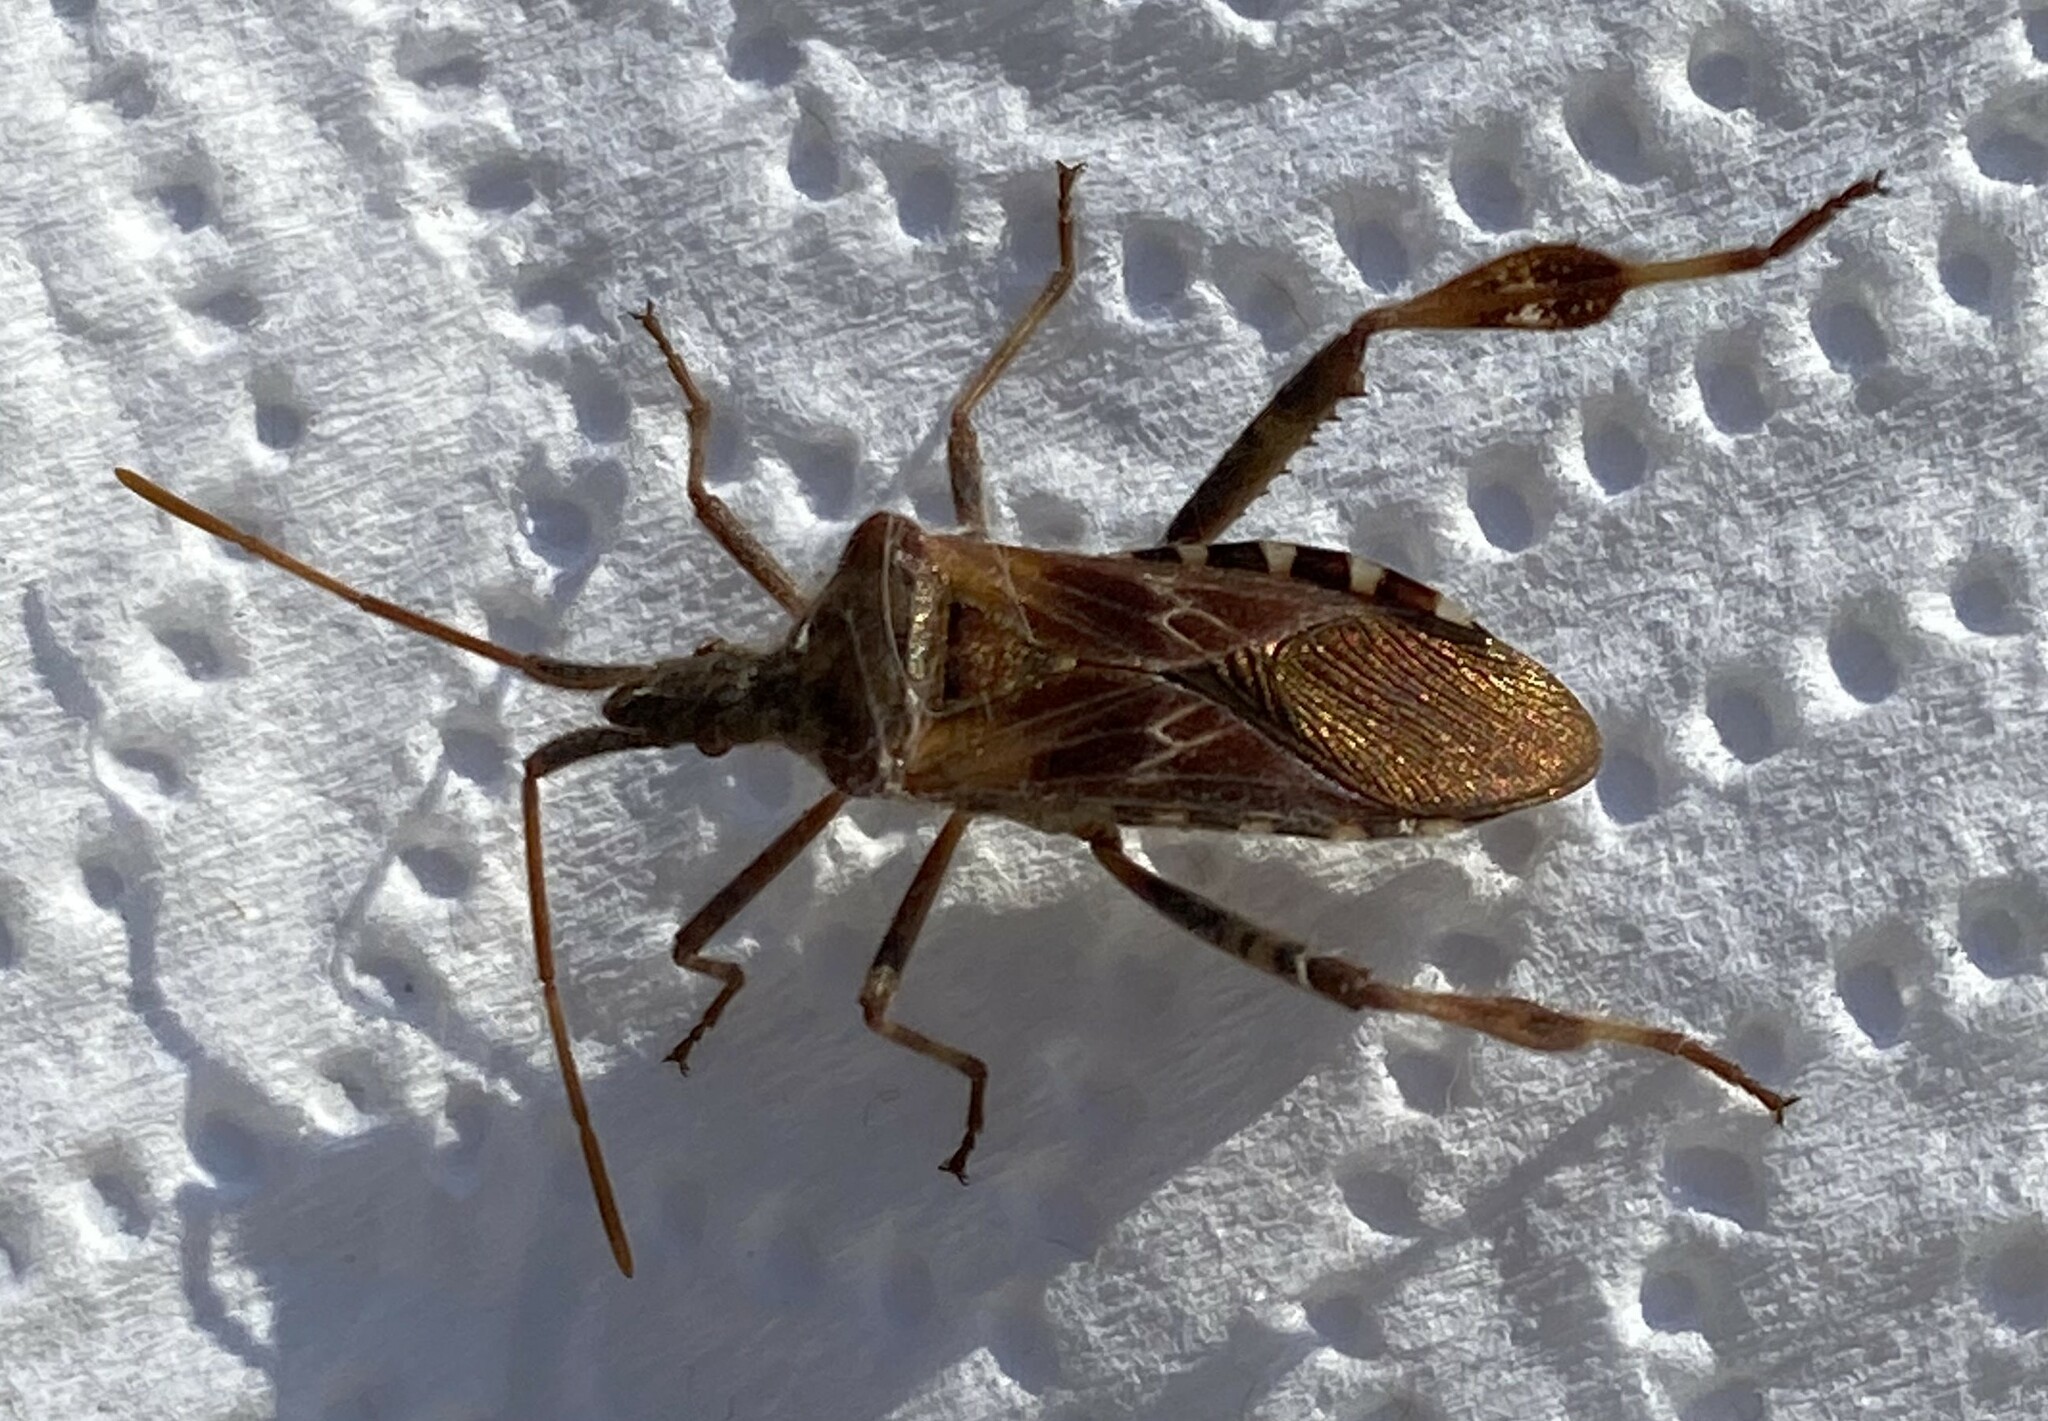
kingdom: Animalia
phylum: Arthropoda
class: Insecta
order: Hemiptera
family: Coreidae
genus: Leptoglossus
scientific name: Leptoglossus occidentalis
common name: Western conifer-seed bug
